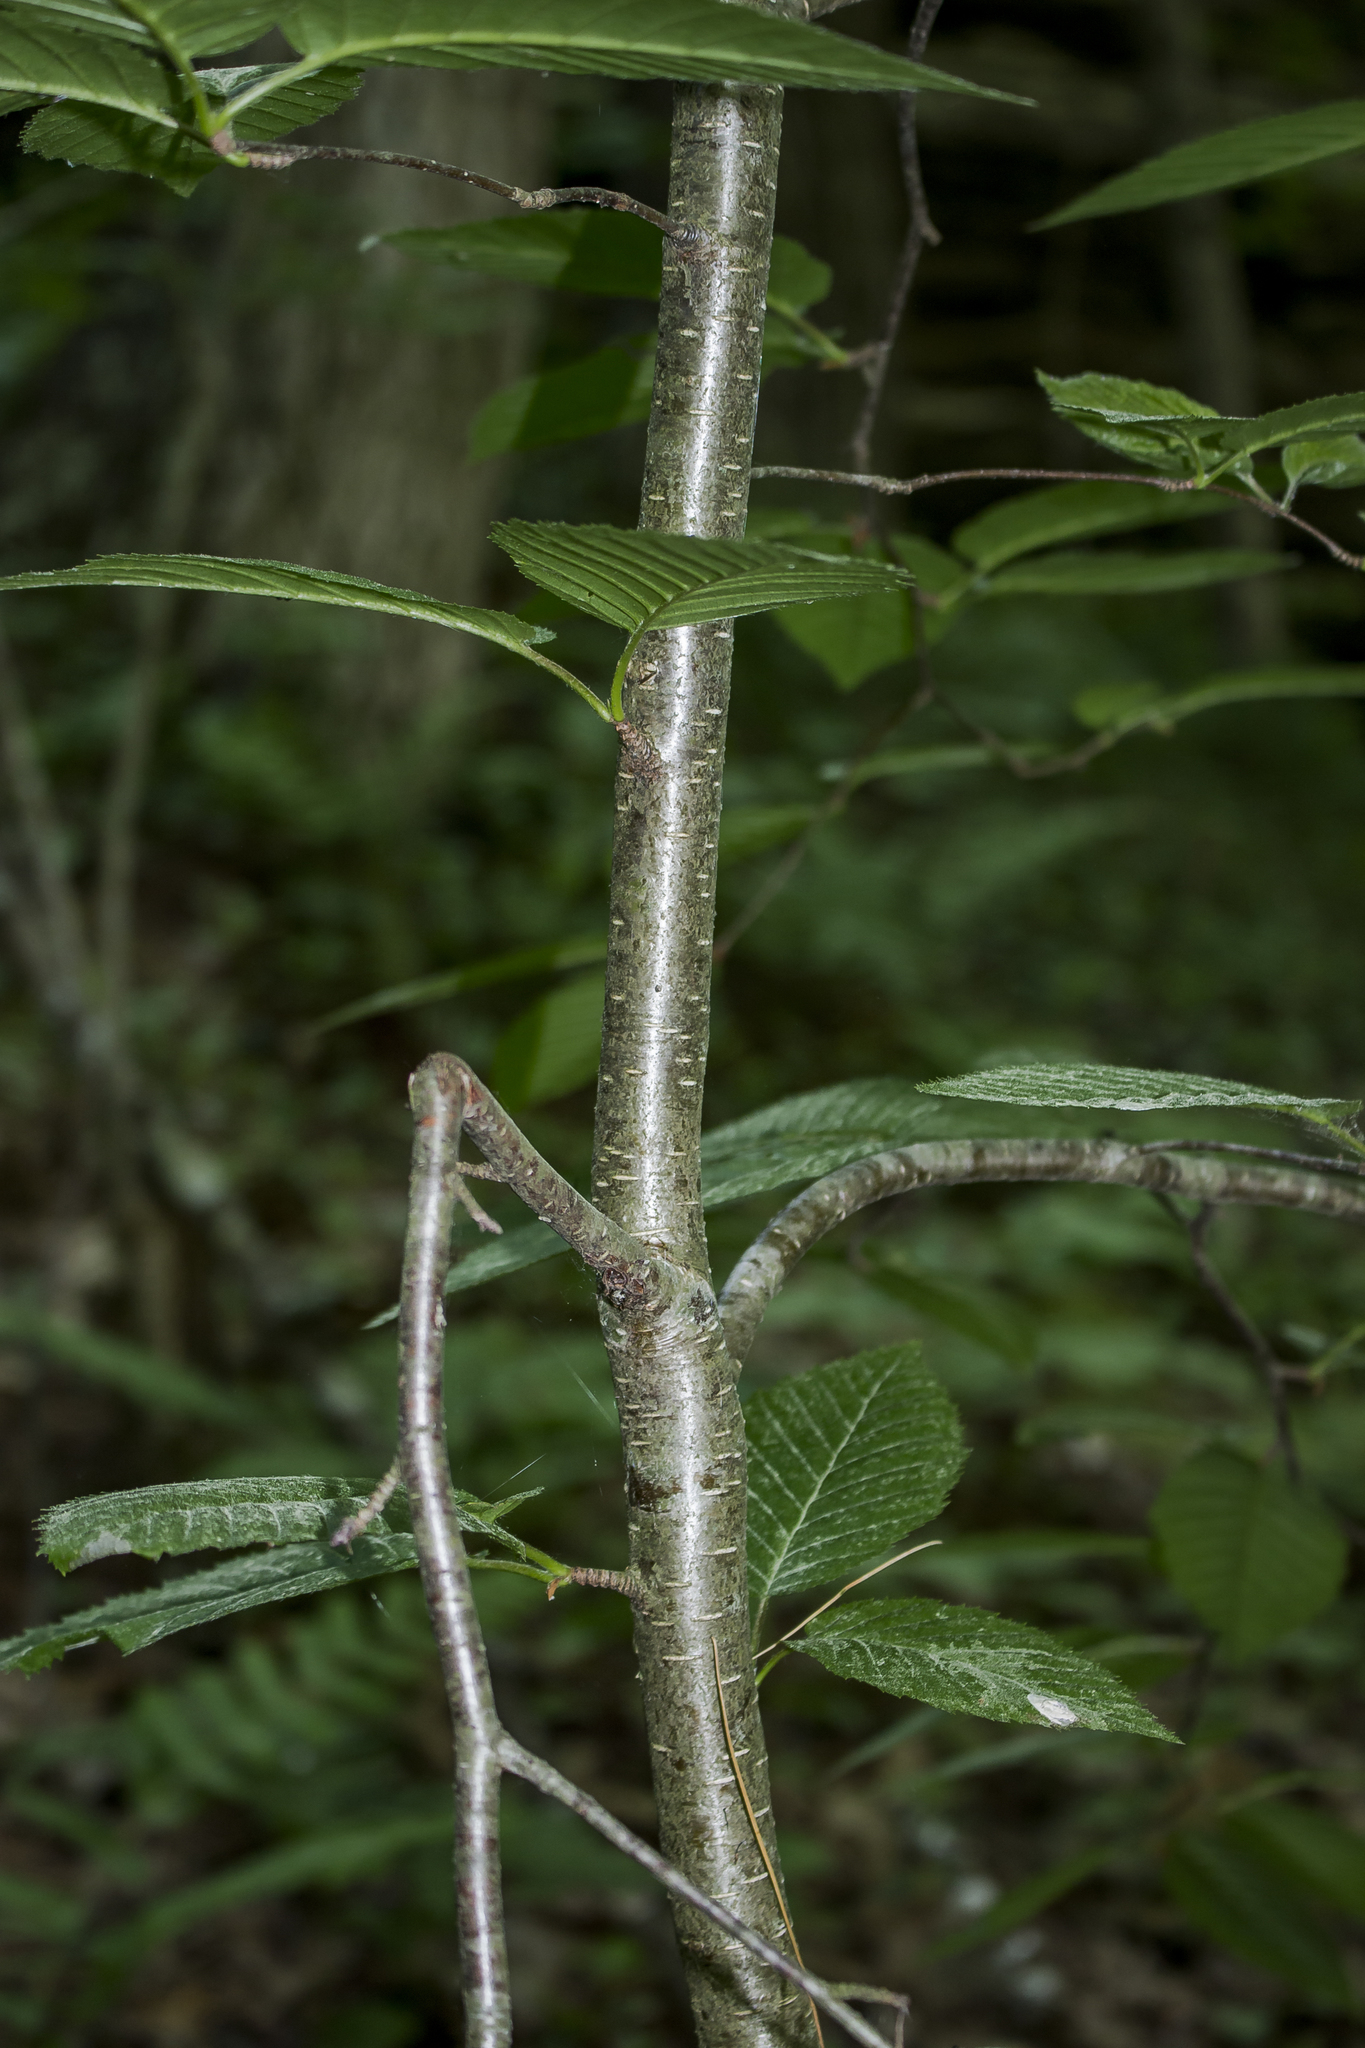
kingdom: Plantae
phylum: Tracheophyta
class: Magnoliopsida
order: Fagales
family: Betulaceae
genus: Betula
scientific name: Betula alleghaniensis
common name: Yellow birch
